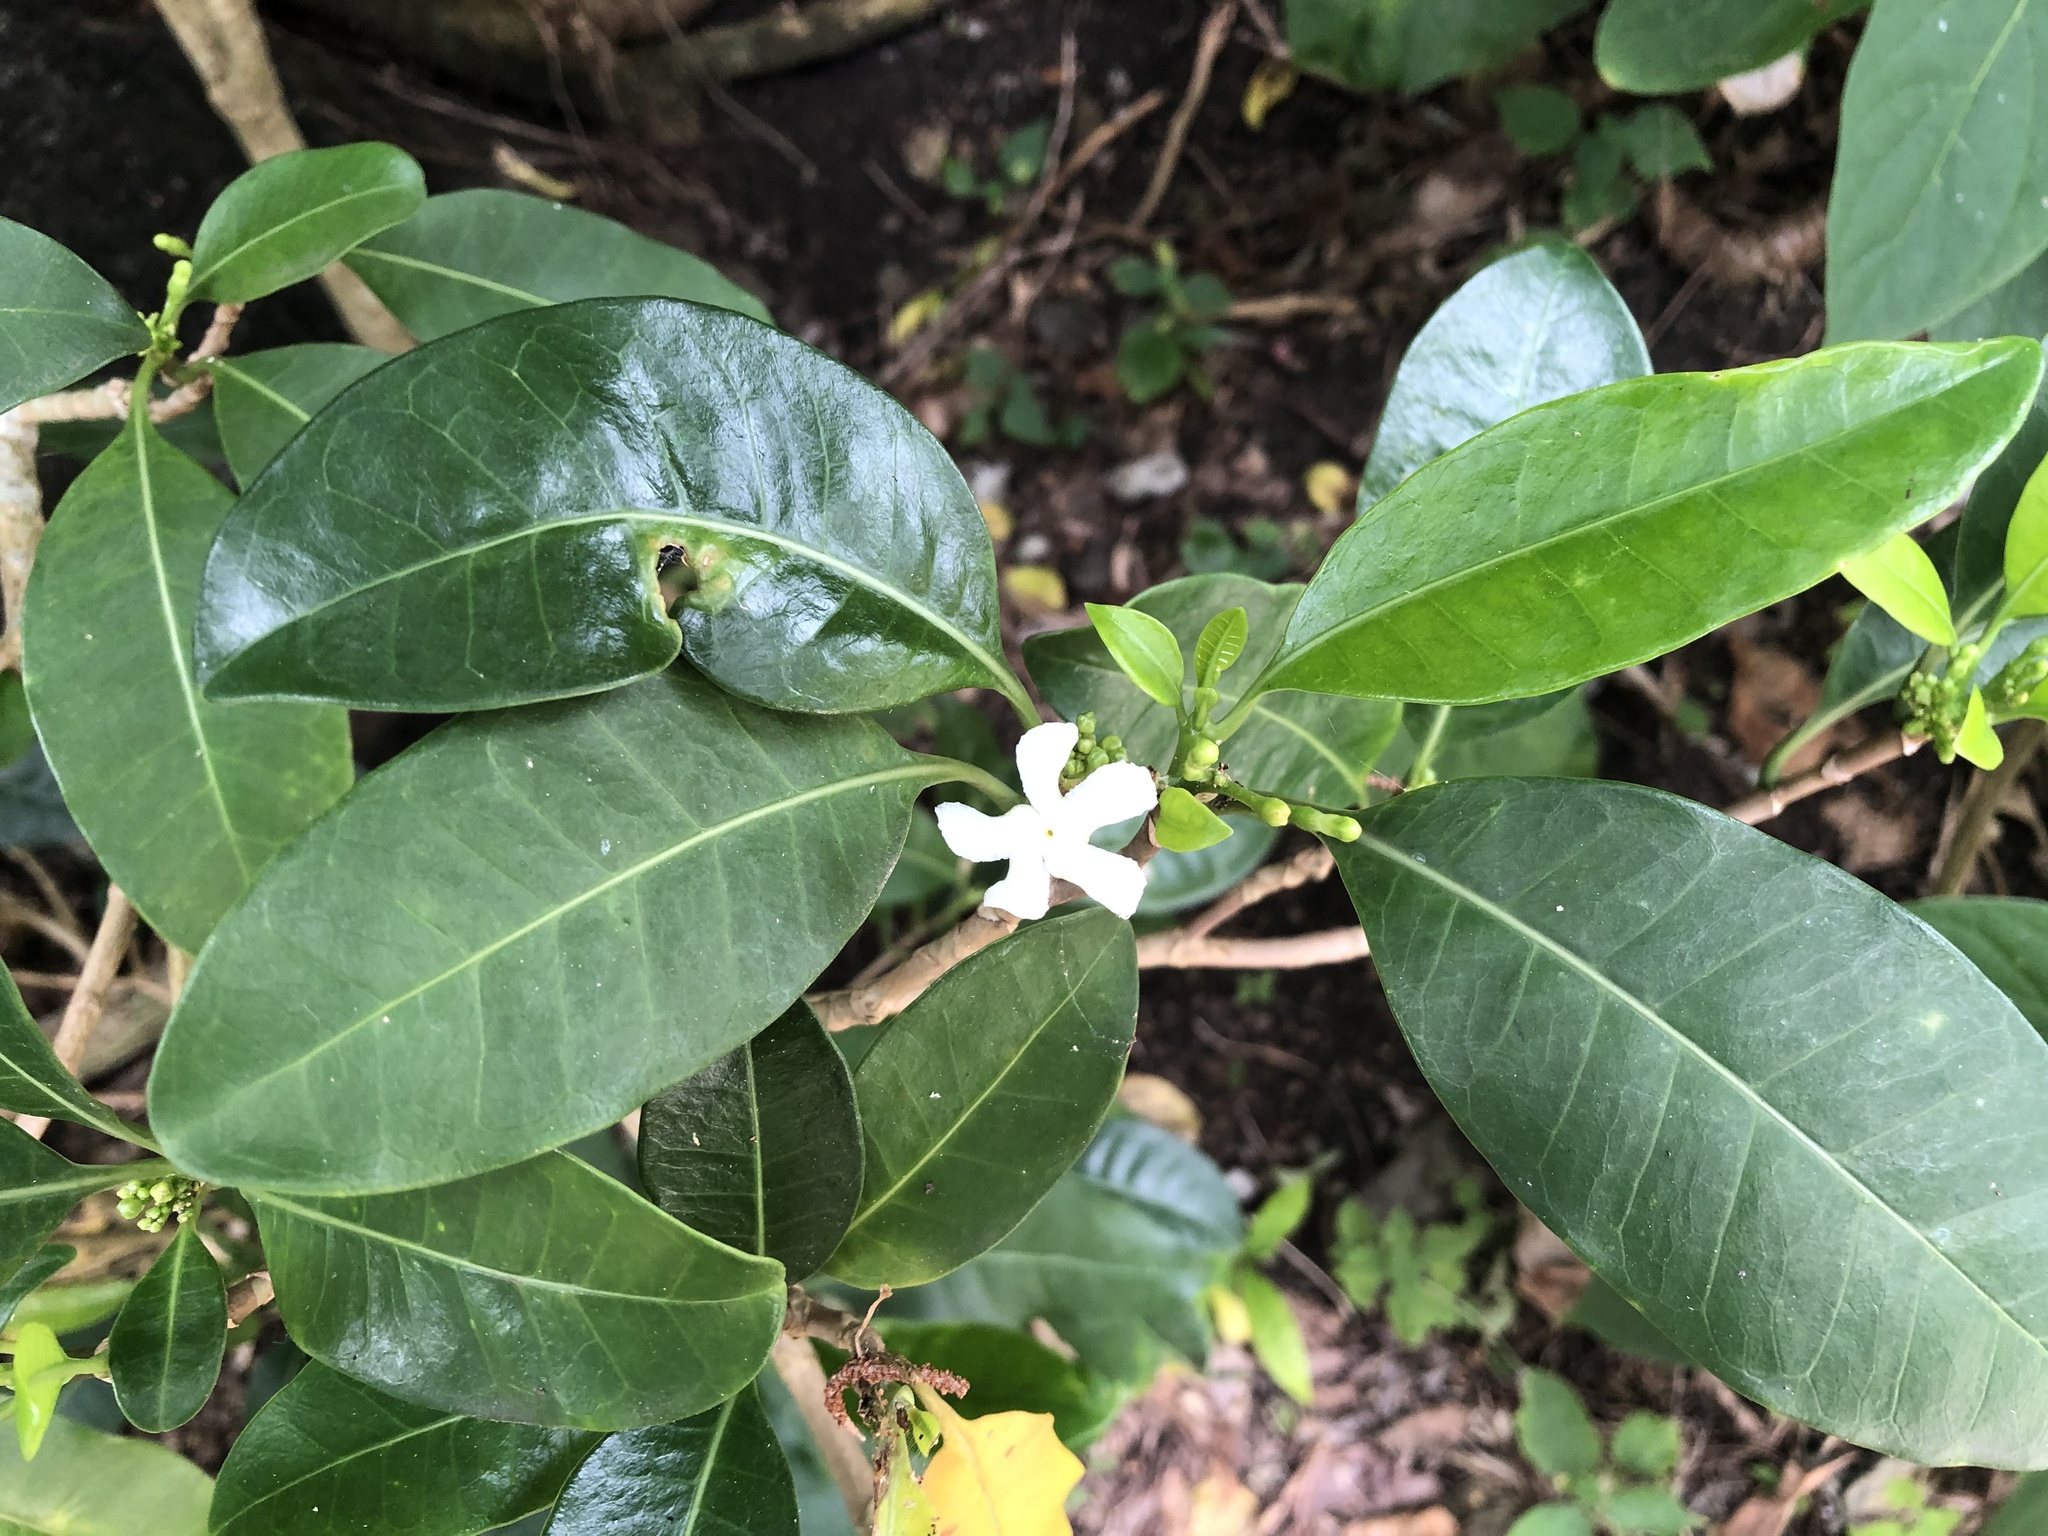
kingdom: Plantae
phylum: Tracheophyta
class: Magnoliopsida
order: Gentianales
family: Apocynaceae
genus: Tabernaemontana
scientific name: Tabernaemontana pandacaqui
